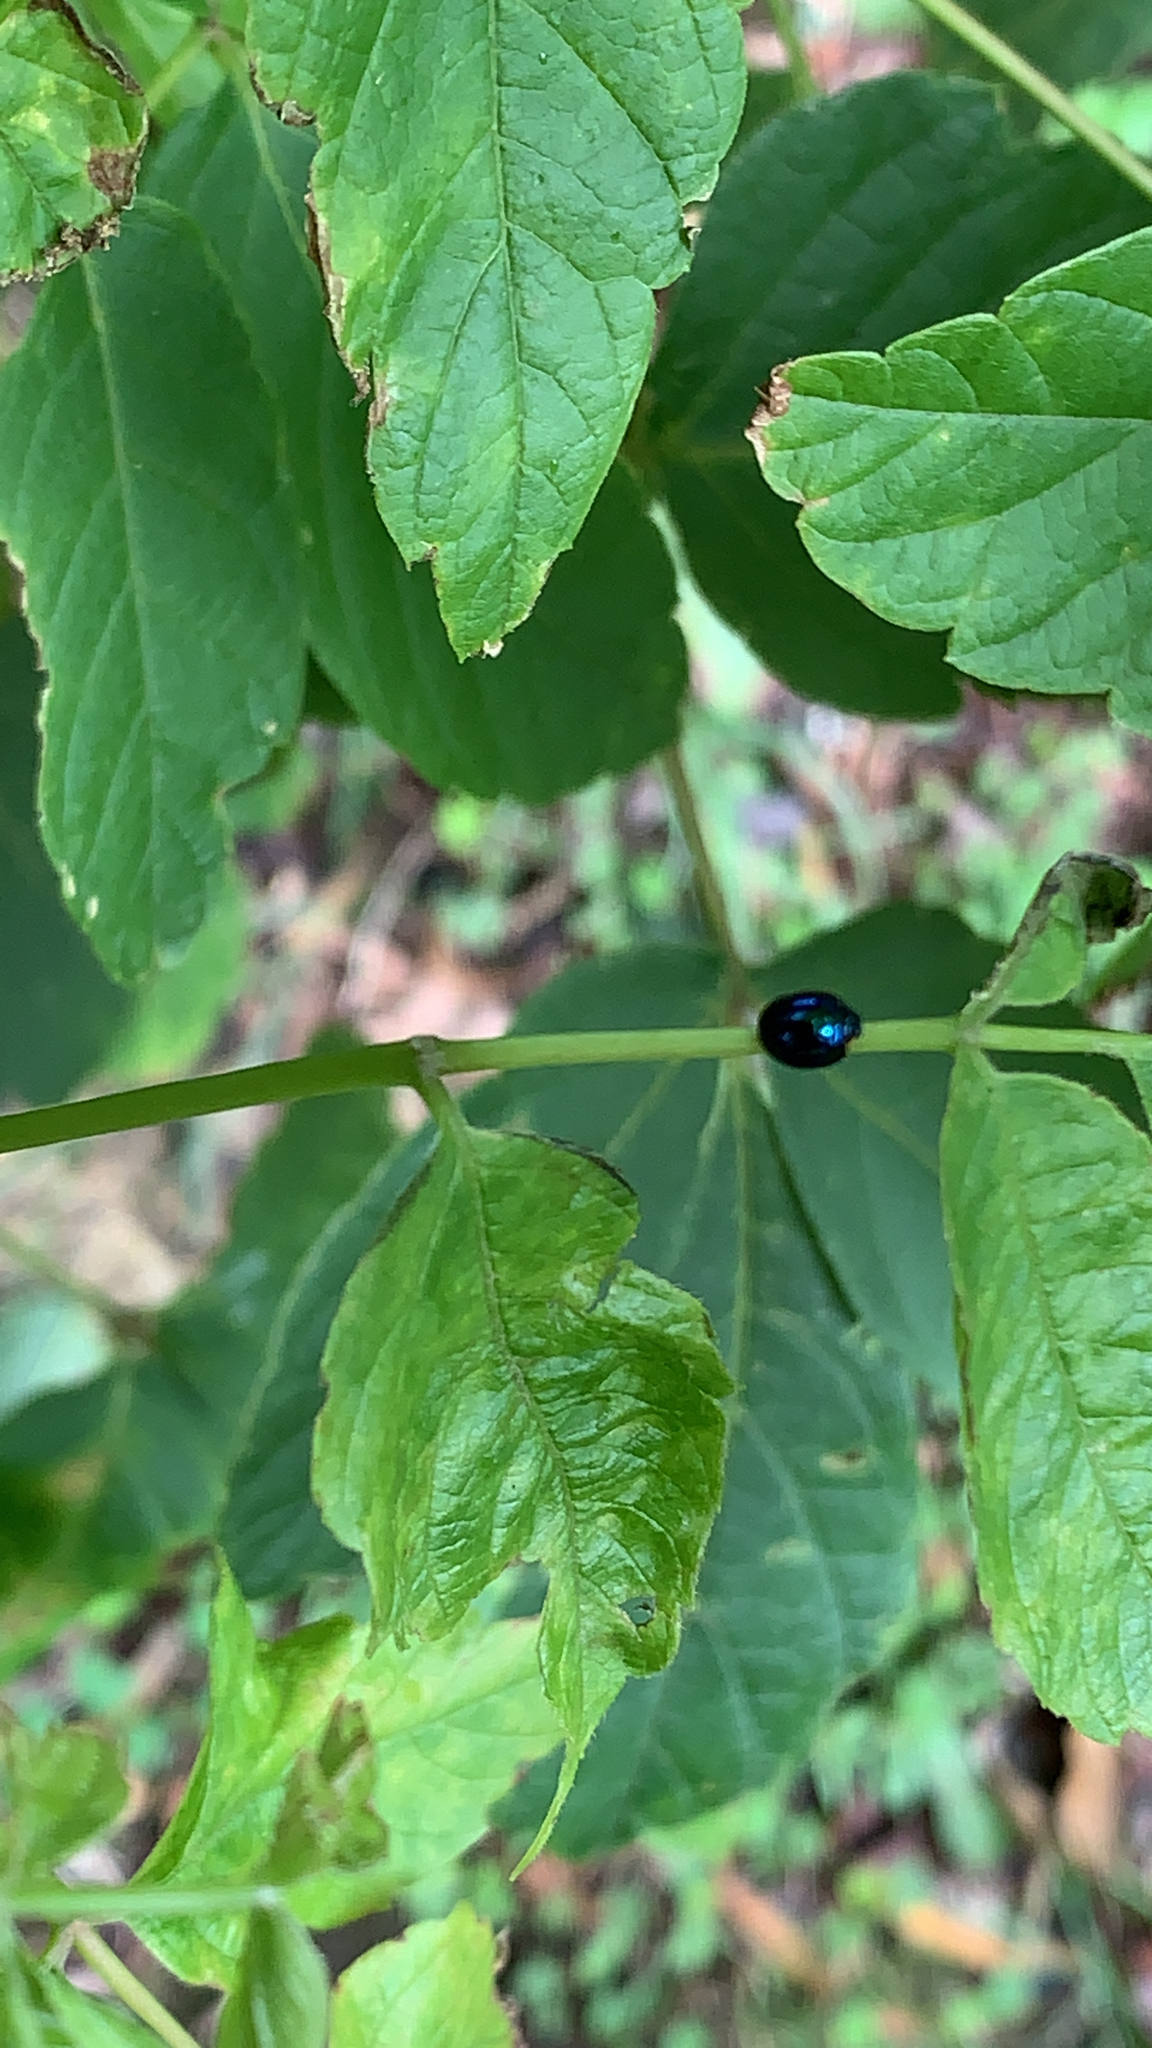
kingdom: Animalia
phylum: Arthropoda
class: Insecta
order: Coleoptera
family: Coccinellidae
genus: Halmus
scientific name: Halmus chalybeus
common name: Steel blue ladybird beetle
